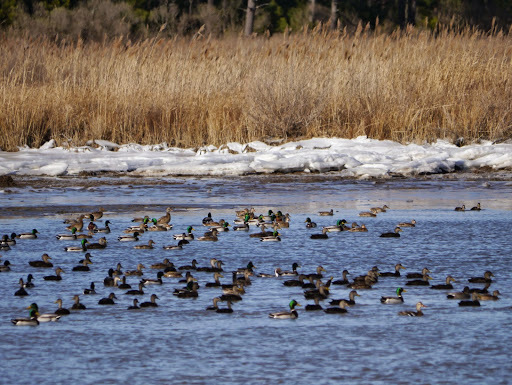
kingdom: Animalia
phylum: Chordata
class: Aves
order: Anseriformes
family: Anatidae
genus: Anas
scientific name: Anas rubripes
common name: American black duck
